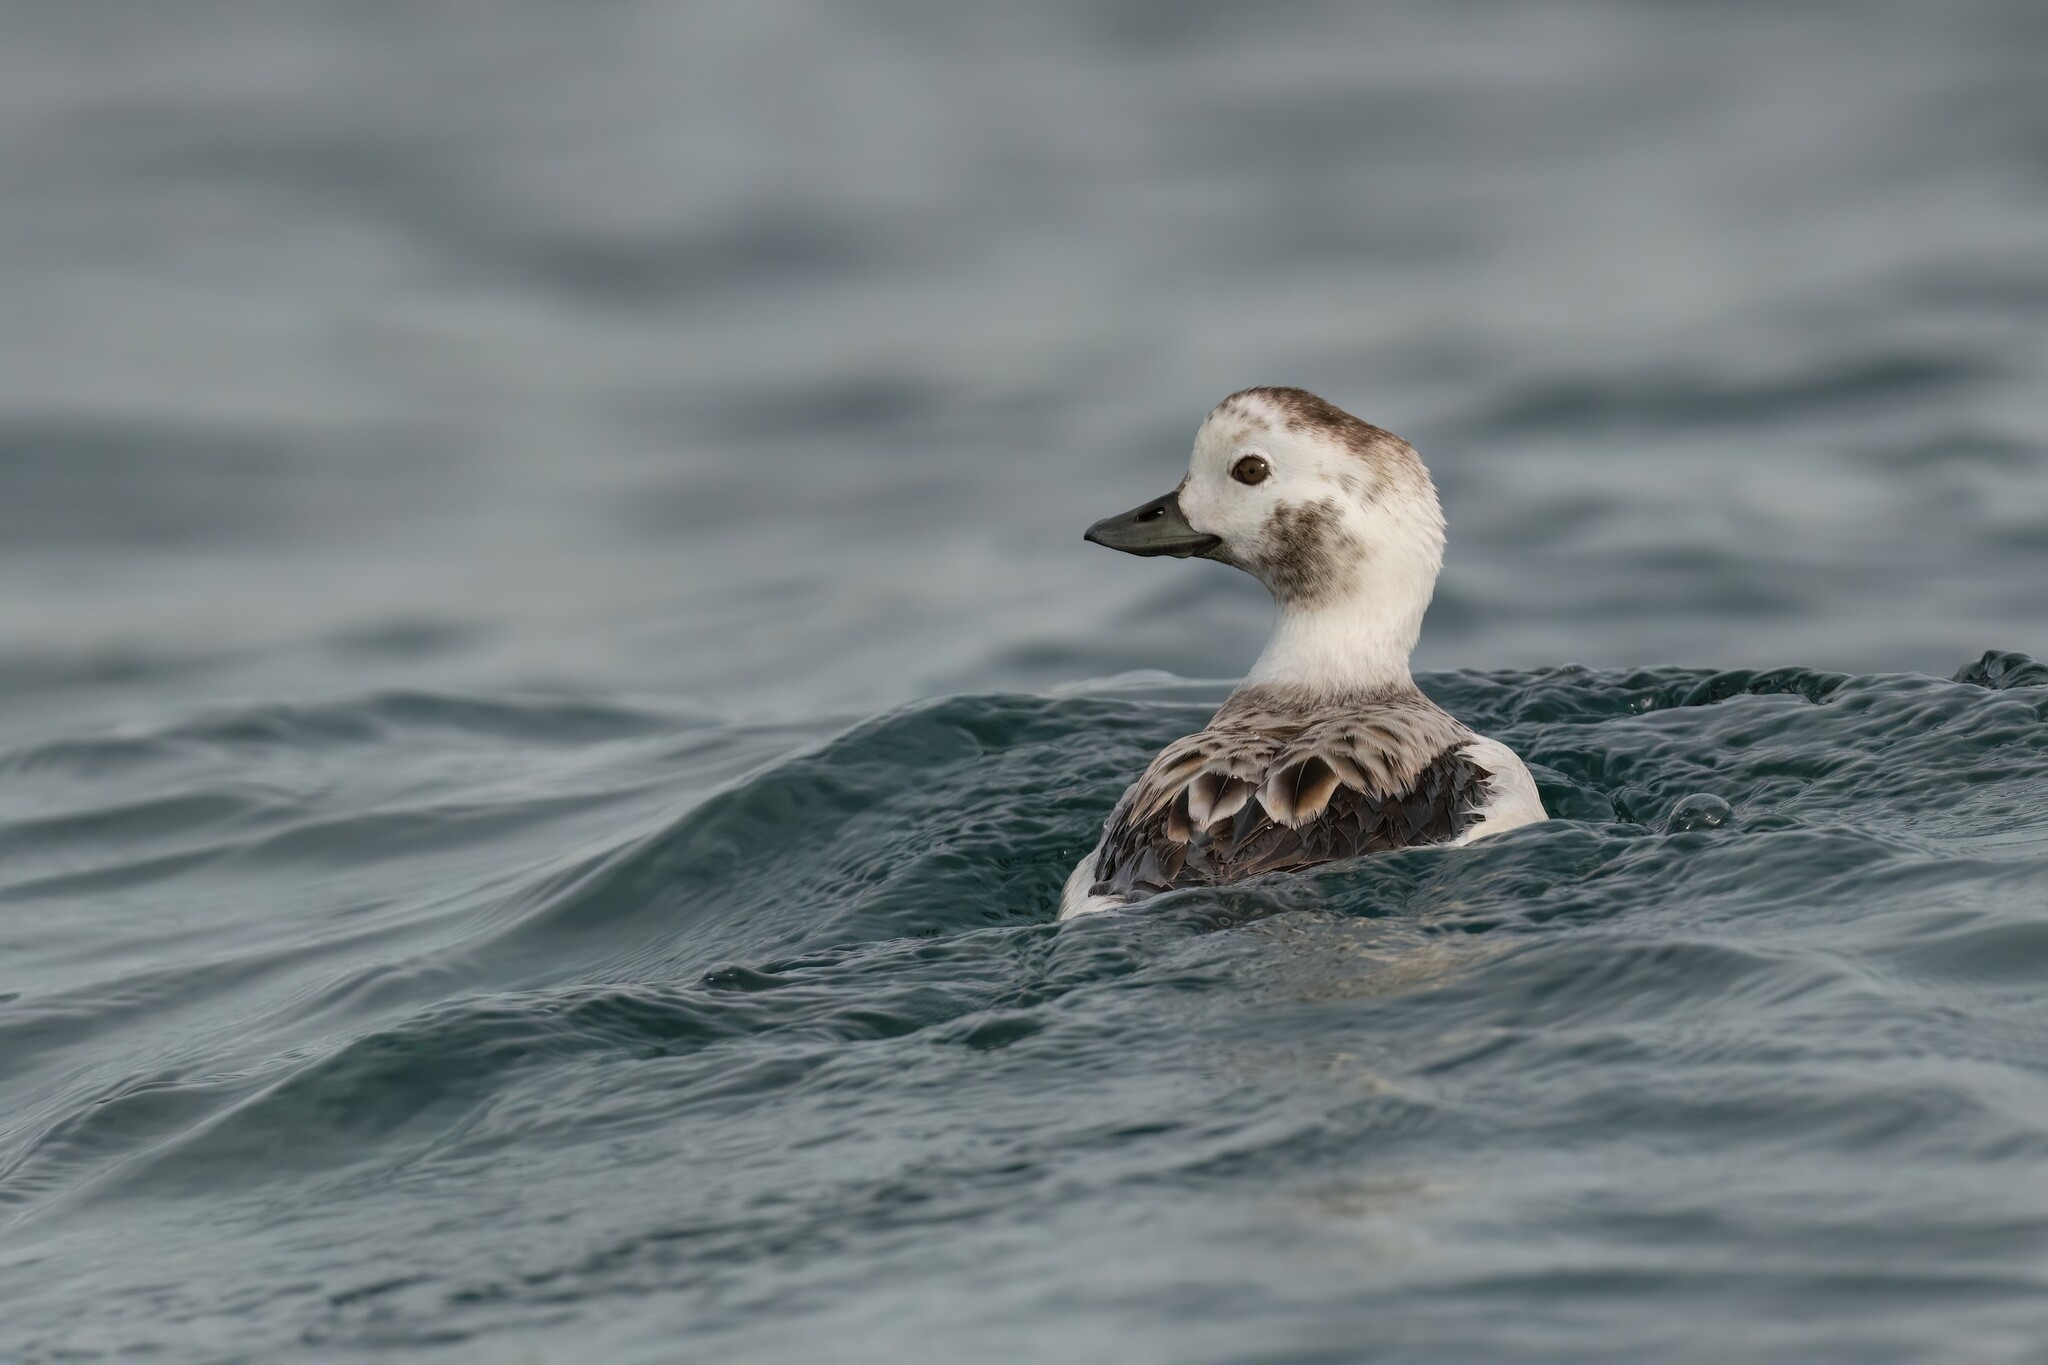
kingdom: Animalia
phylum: Chordata
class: Aves
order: Anseriformes
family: Anatidae
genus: Clangula
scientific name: Clangula hyemalis
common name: Long-tailed duck
